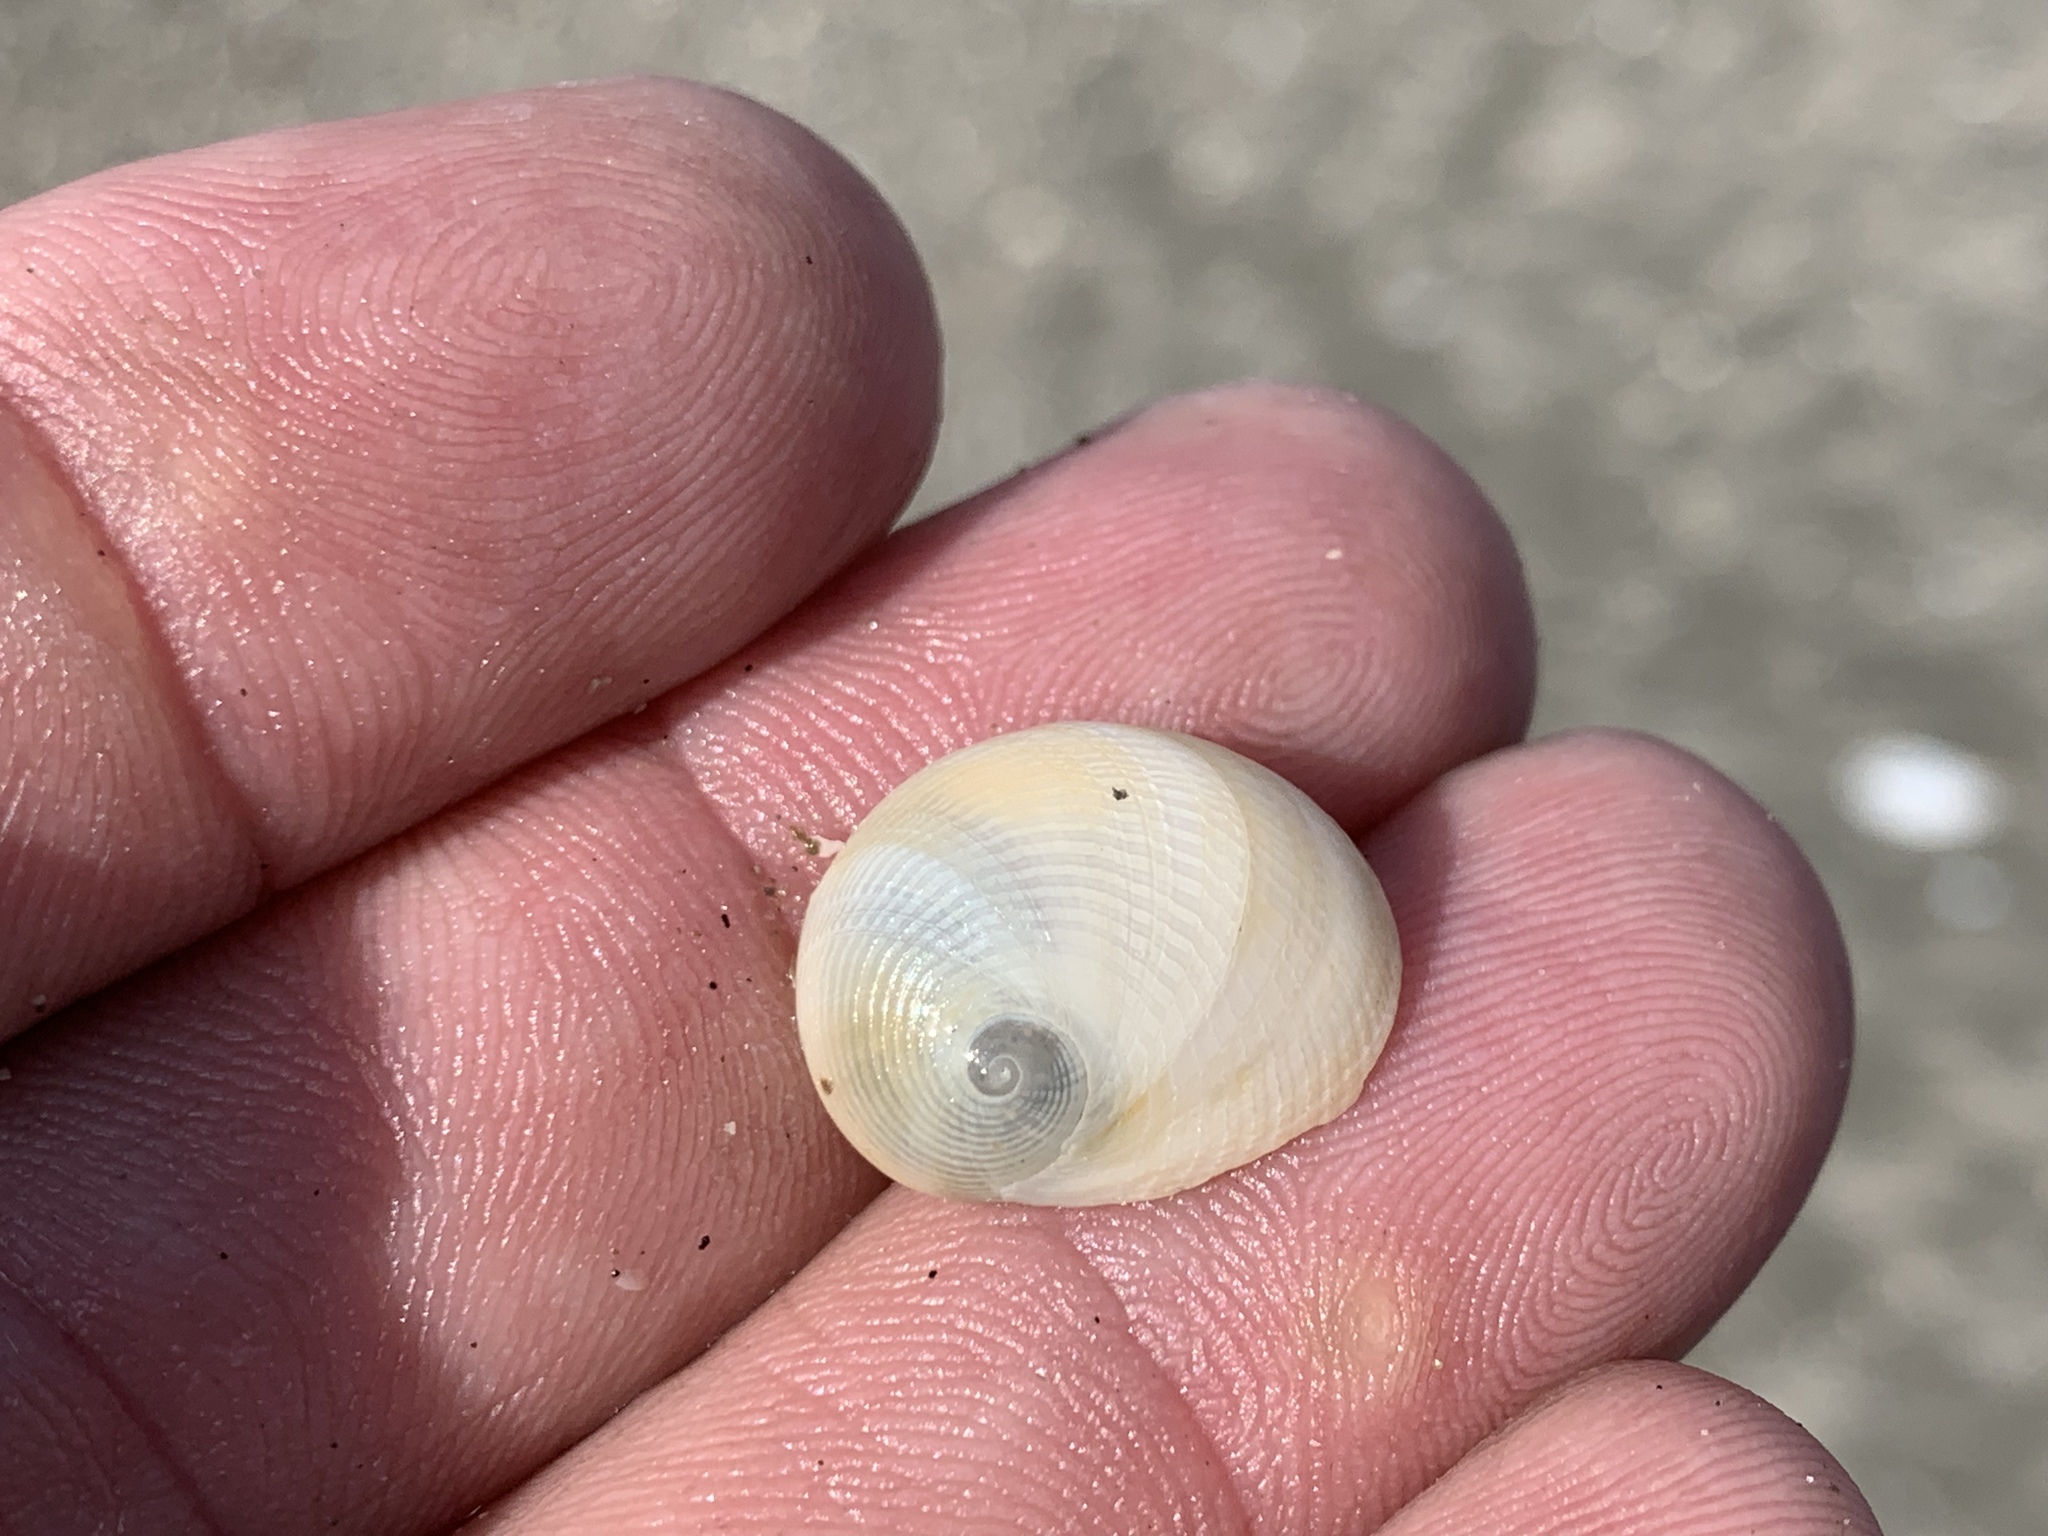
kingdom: Animalia
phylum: Mollusca
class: Gastropoda
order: Littorinimorpha
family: Naticidae
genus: Sinum
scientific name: Sinum perspectivum
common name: White baby ear
